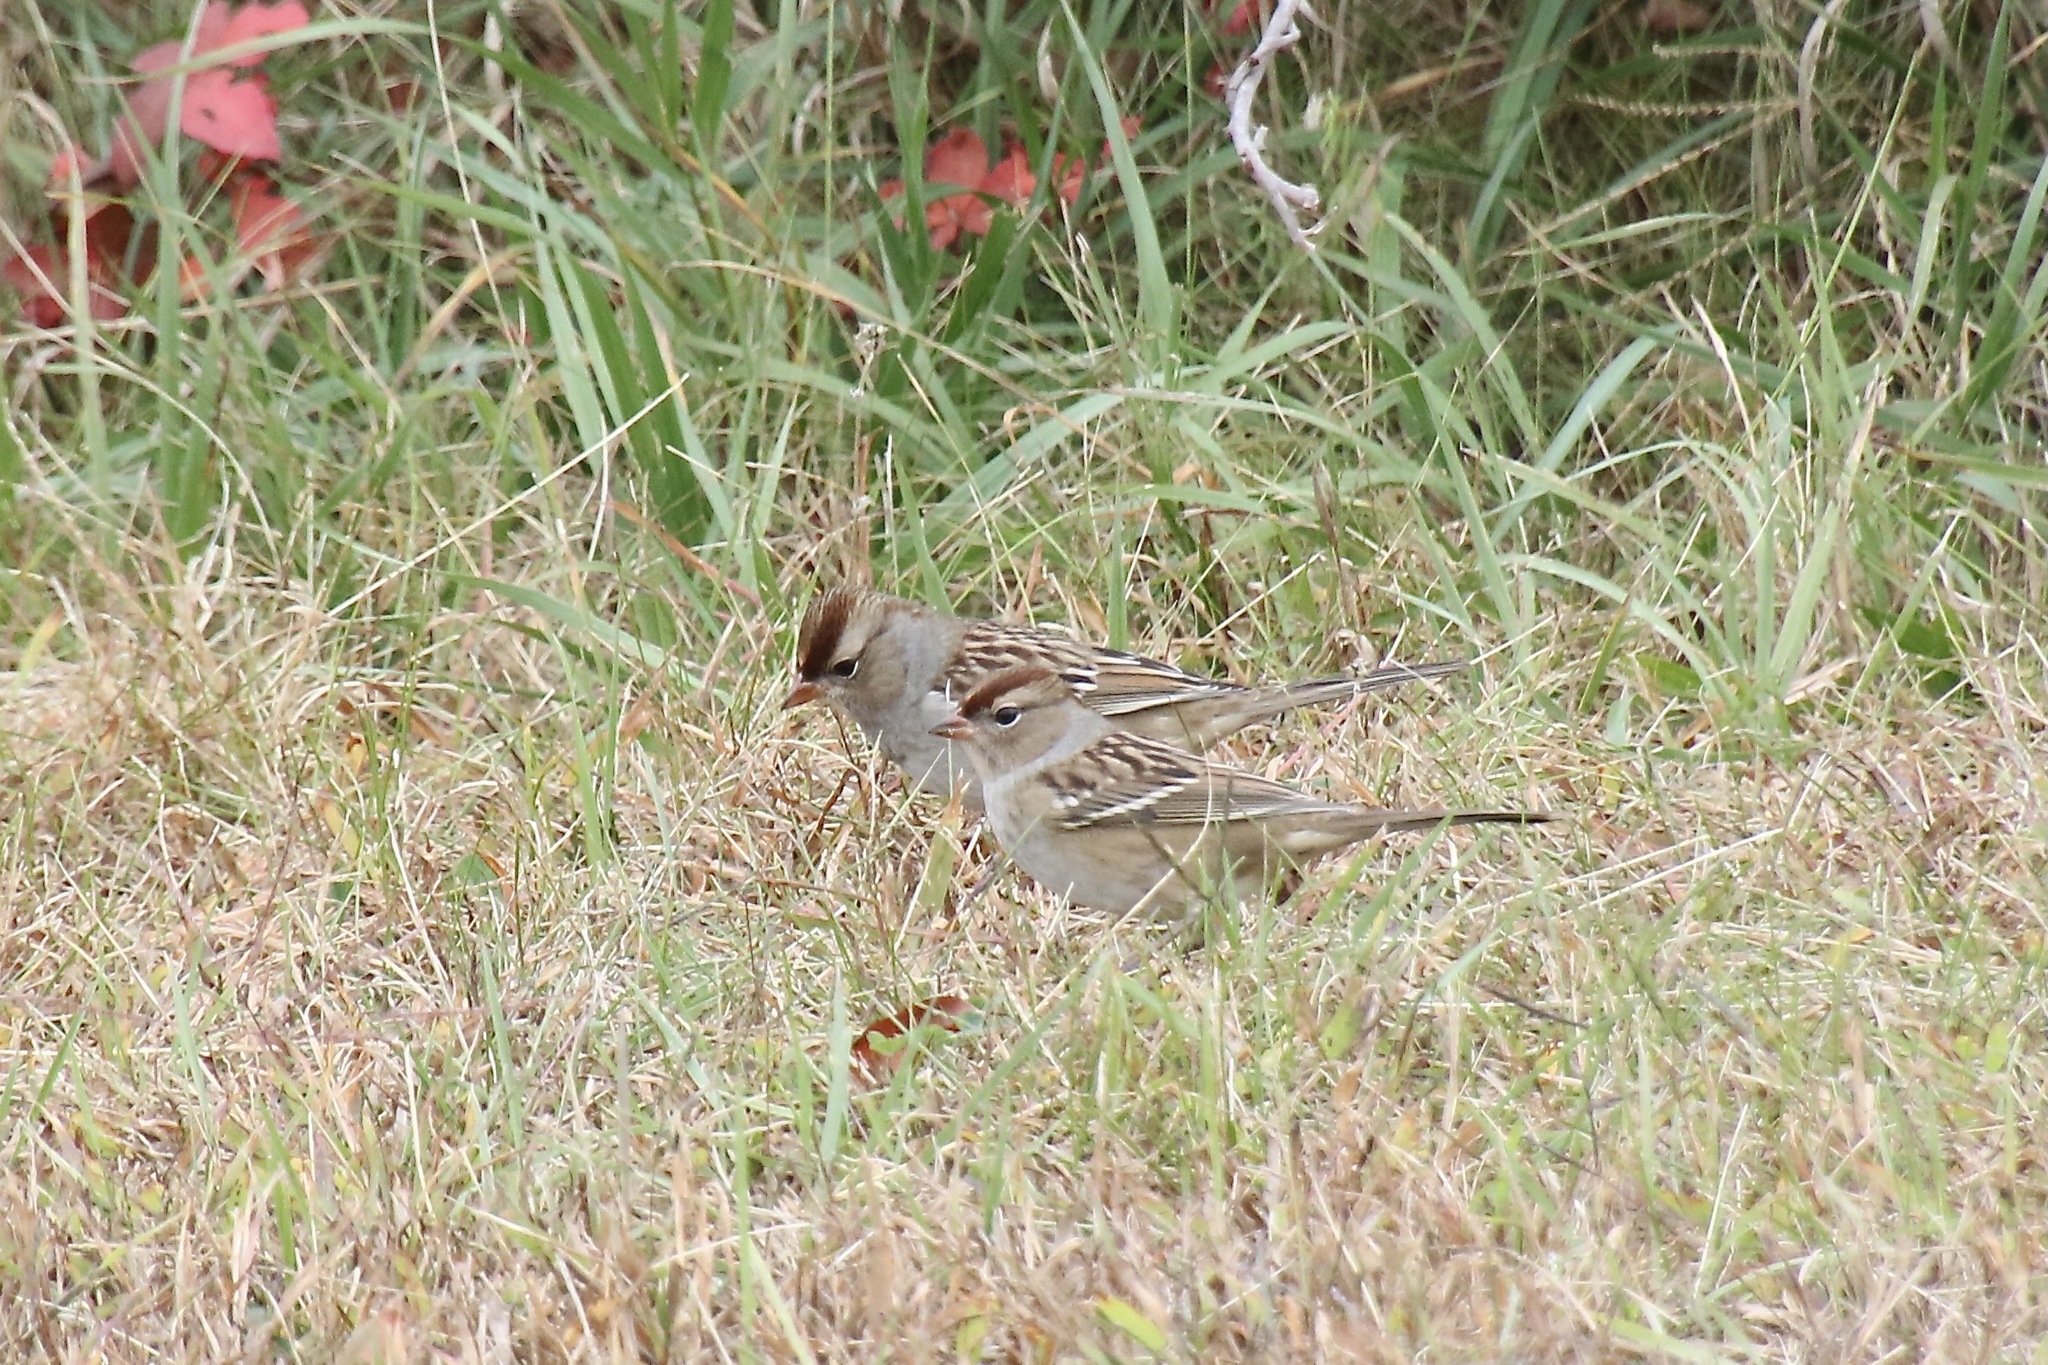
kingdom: Animalia
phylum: Chordata
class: Aves
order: Passeriformes
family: Passerellidae
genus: Zonotrichia
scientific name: Zonotrichia leucophrys
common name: White-crowned sparrow
